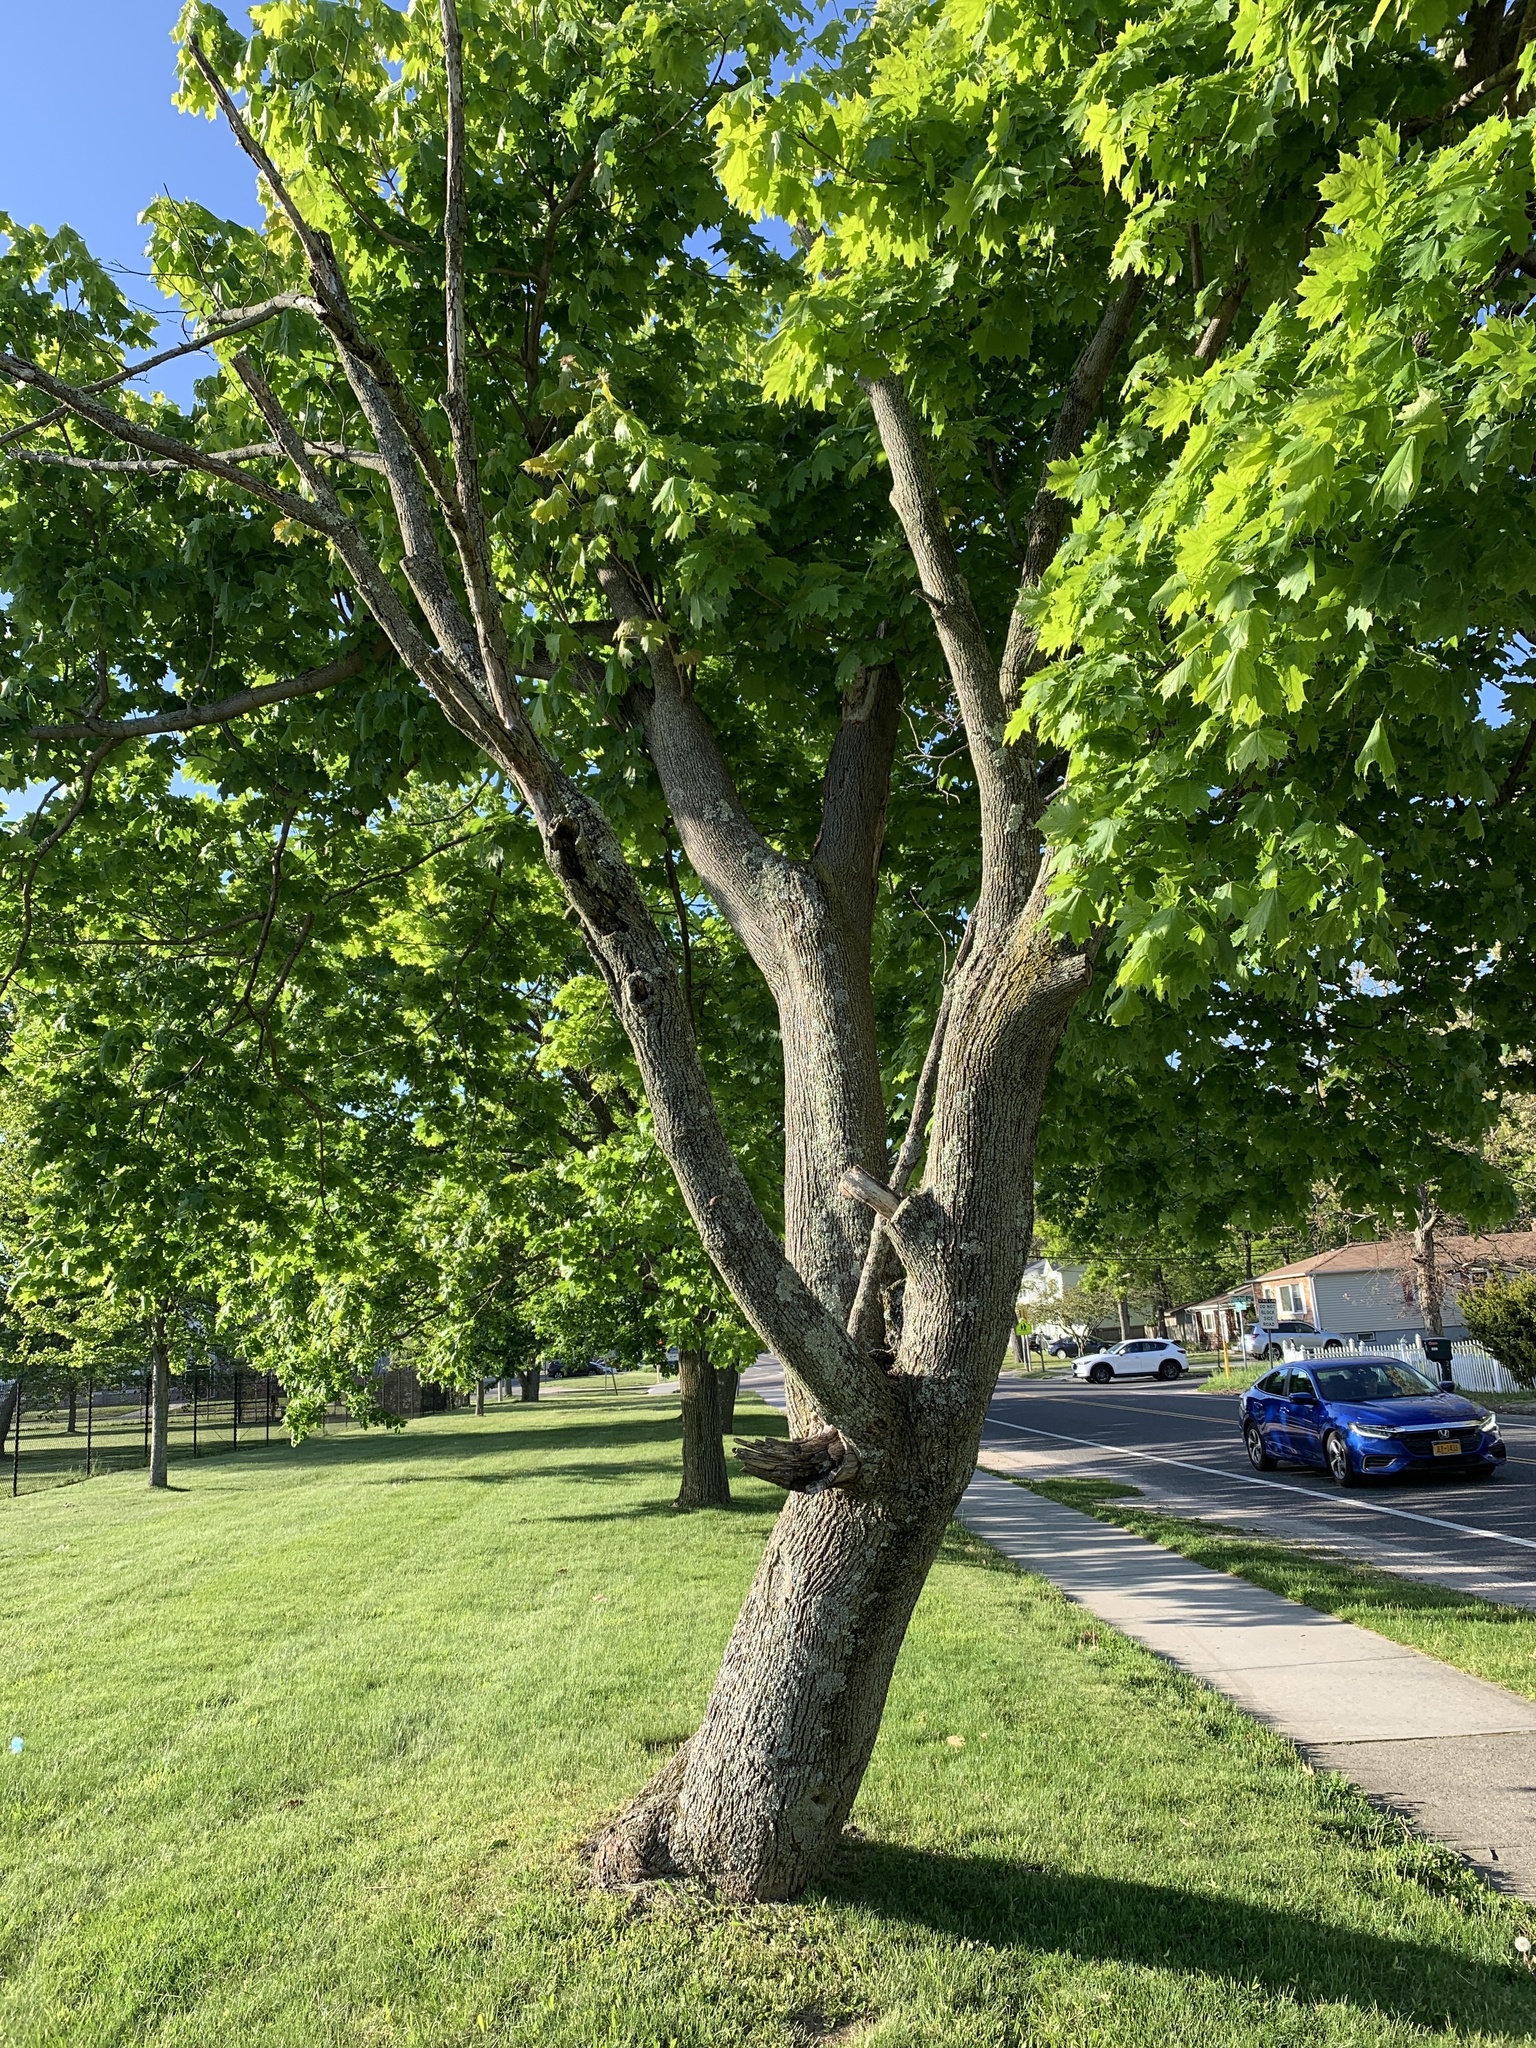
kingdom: Plantae
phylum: Tracheophyta
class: Magnoliopsida
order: Sapindales
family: Sapindaceae
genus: Acer
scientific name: Acer platanoides
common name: Norway maple
